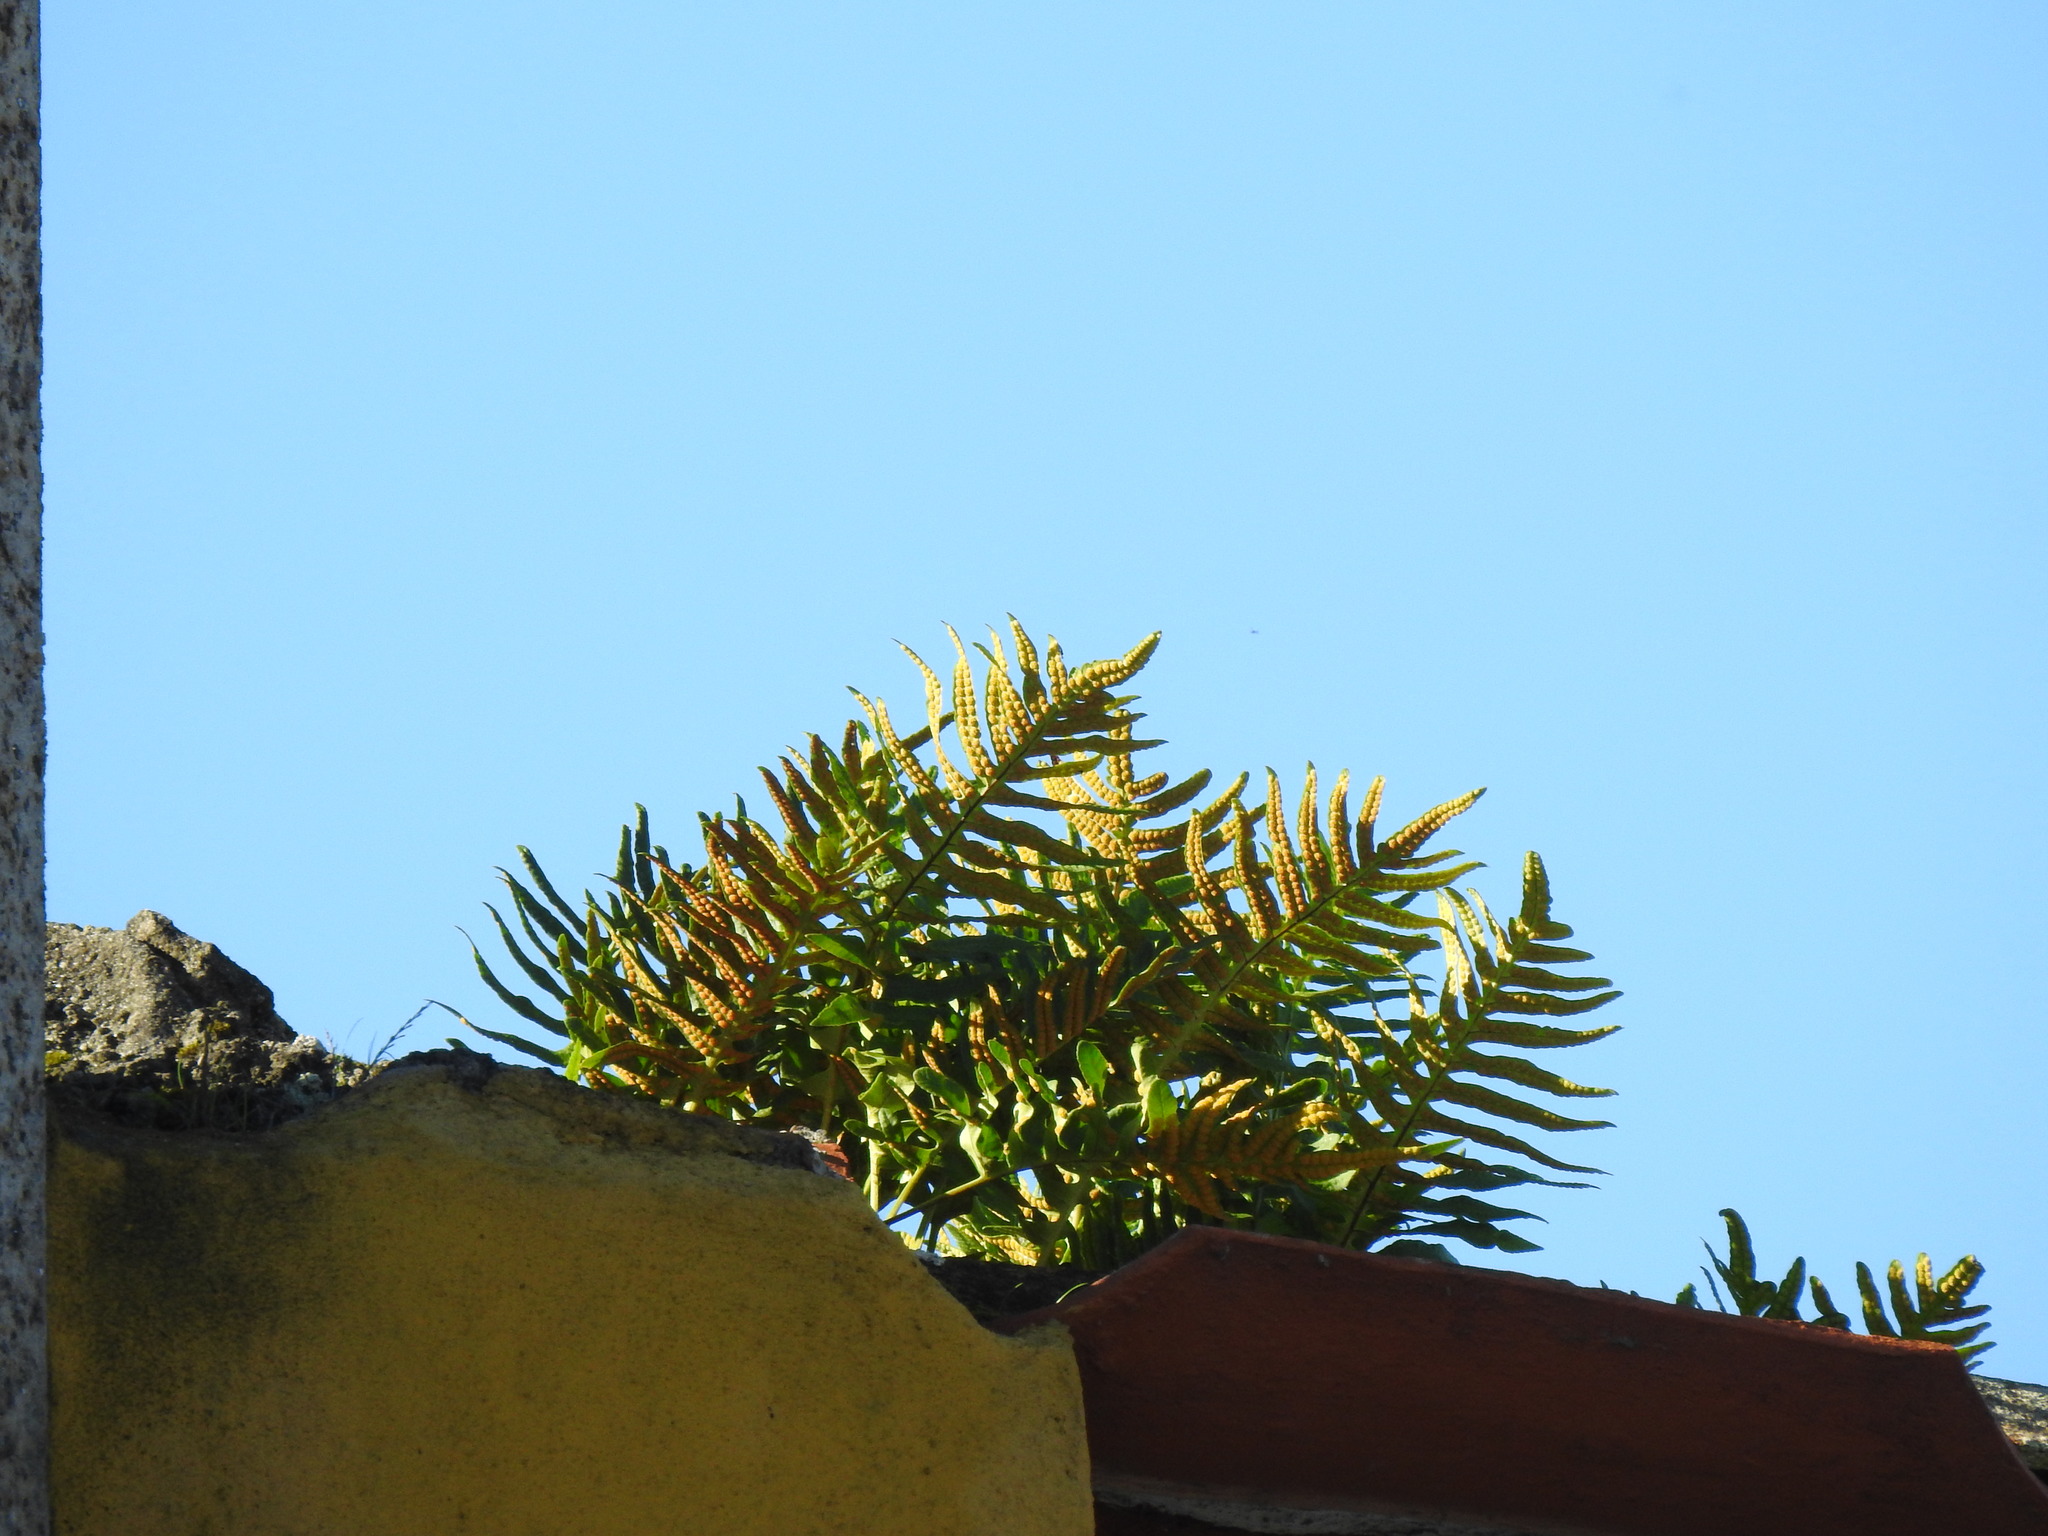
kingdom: Plantae
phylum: Tracheophyta
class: Polypodiopsida
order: Polypodiales
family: Polypodiaceae
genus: Polypodium
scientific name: Polypodium cambricum
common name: Southern polypody
